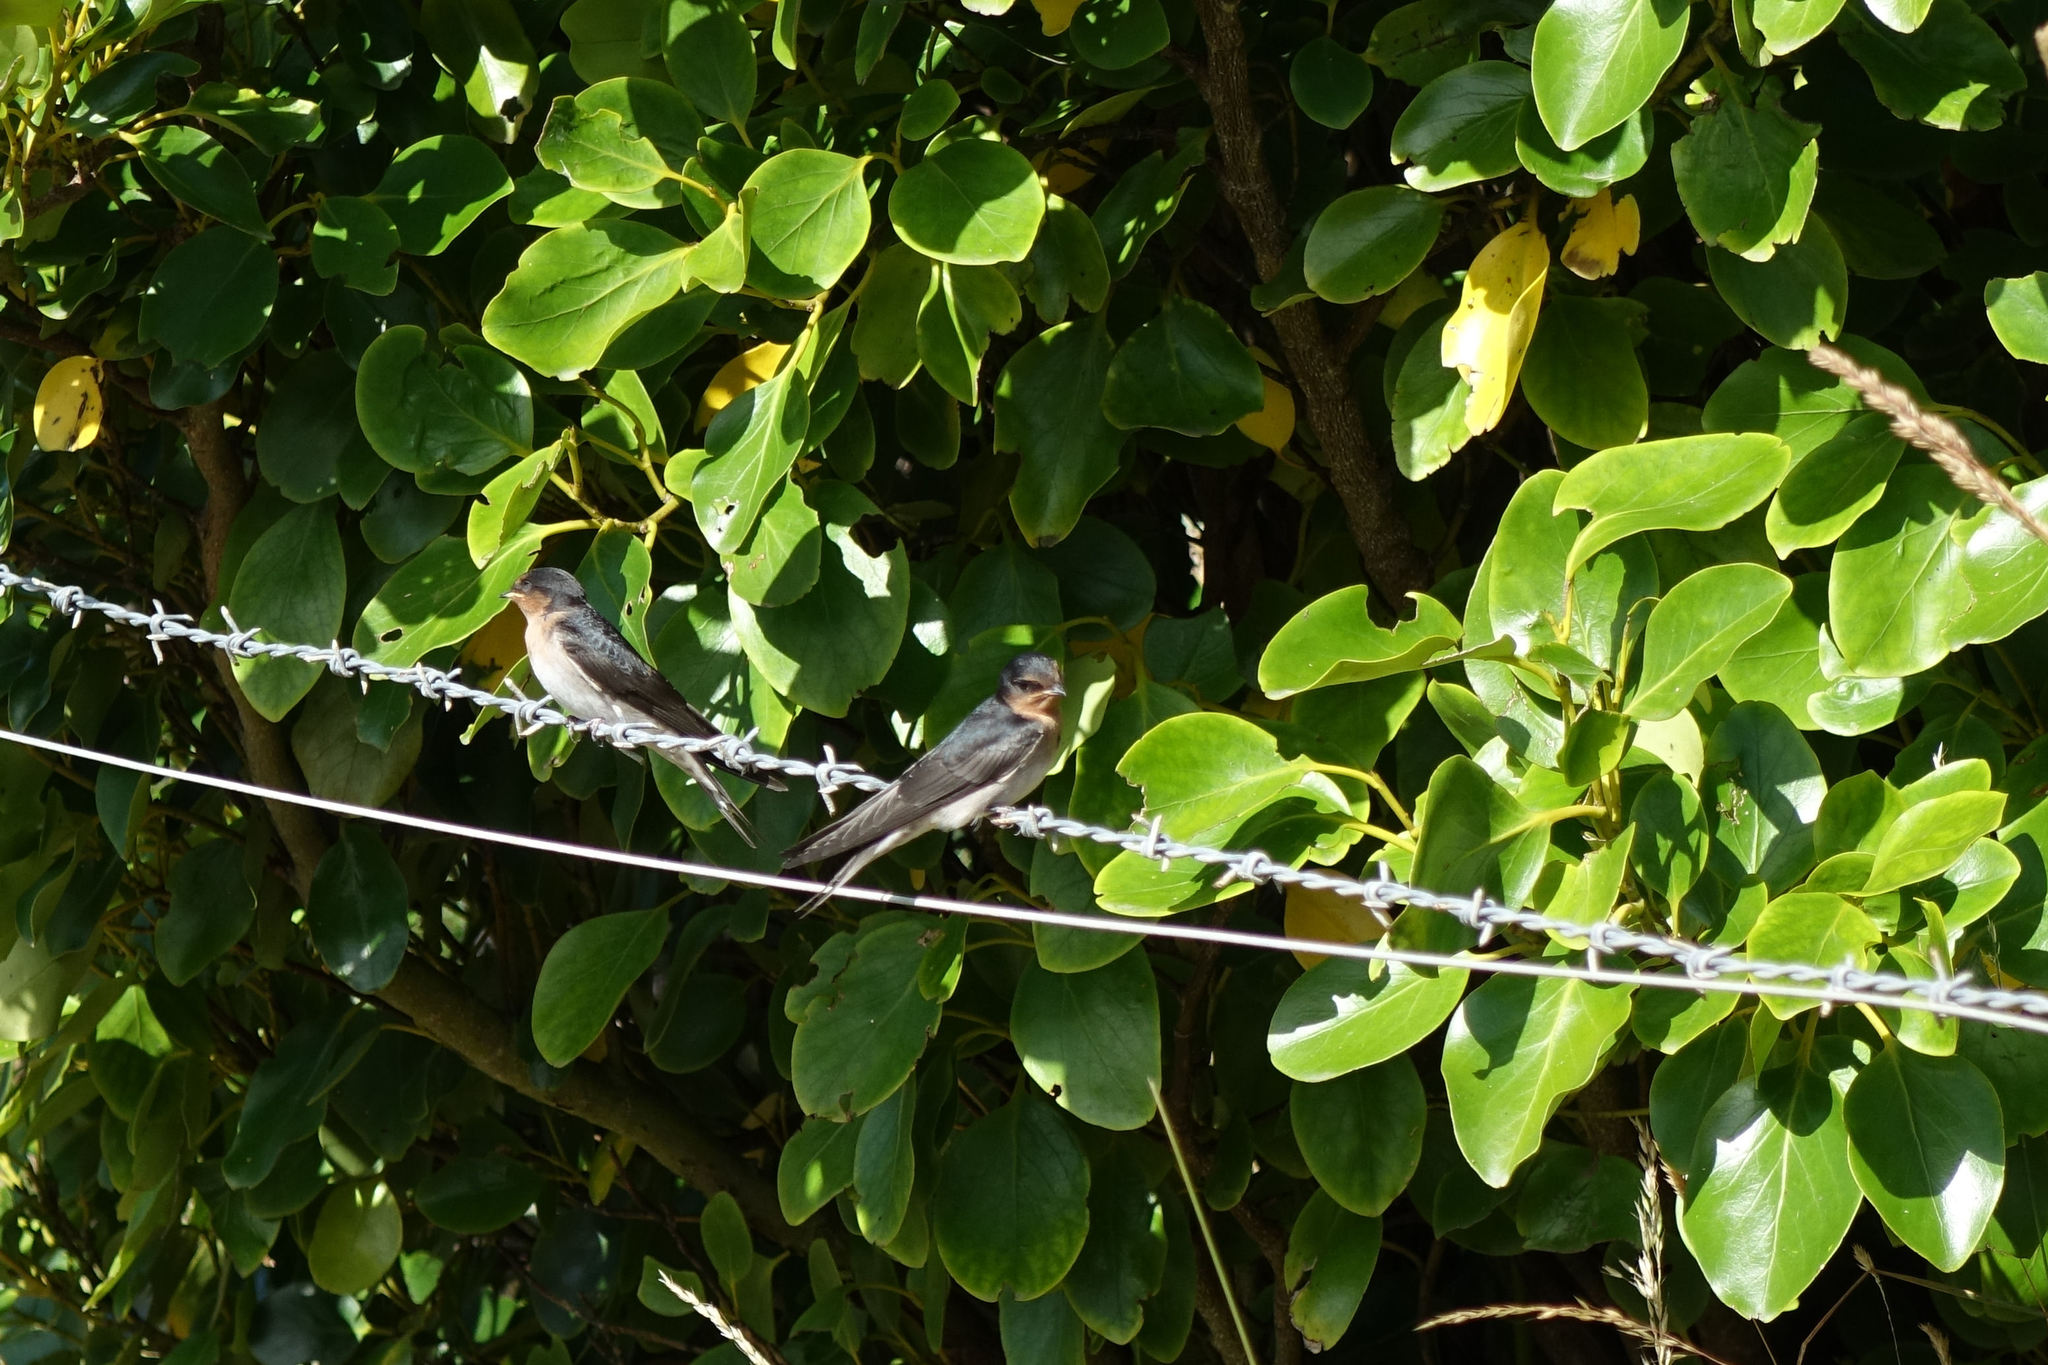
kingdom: Animalia
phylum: Chordata
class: Aves
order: Passeriformes
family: Hirundinidae
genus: Hirundo
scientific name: Hirundo neoxena
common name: Welcome swallow
